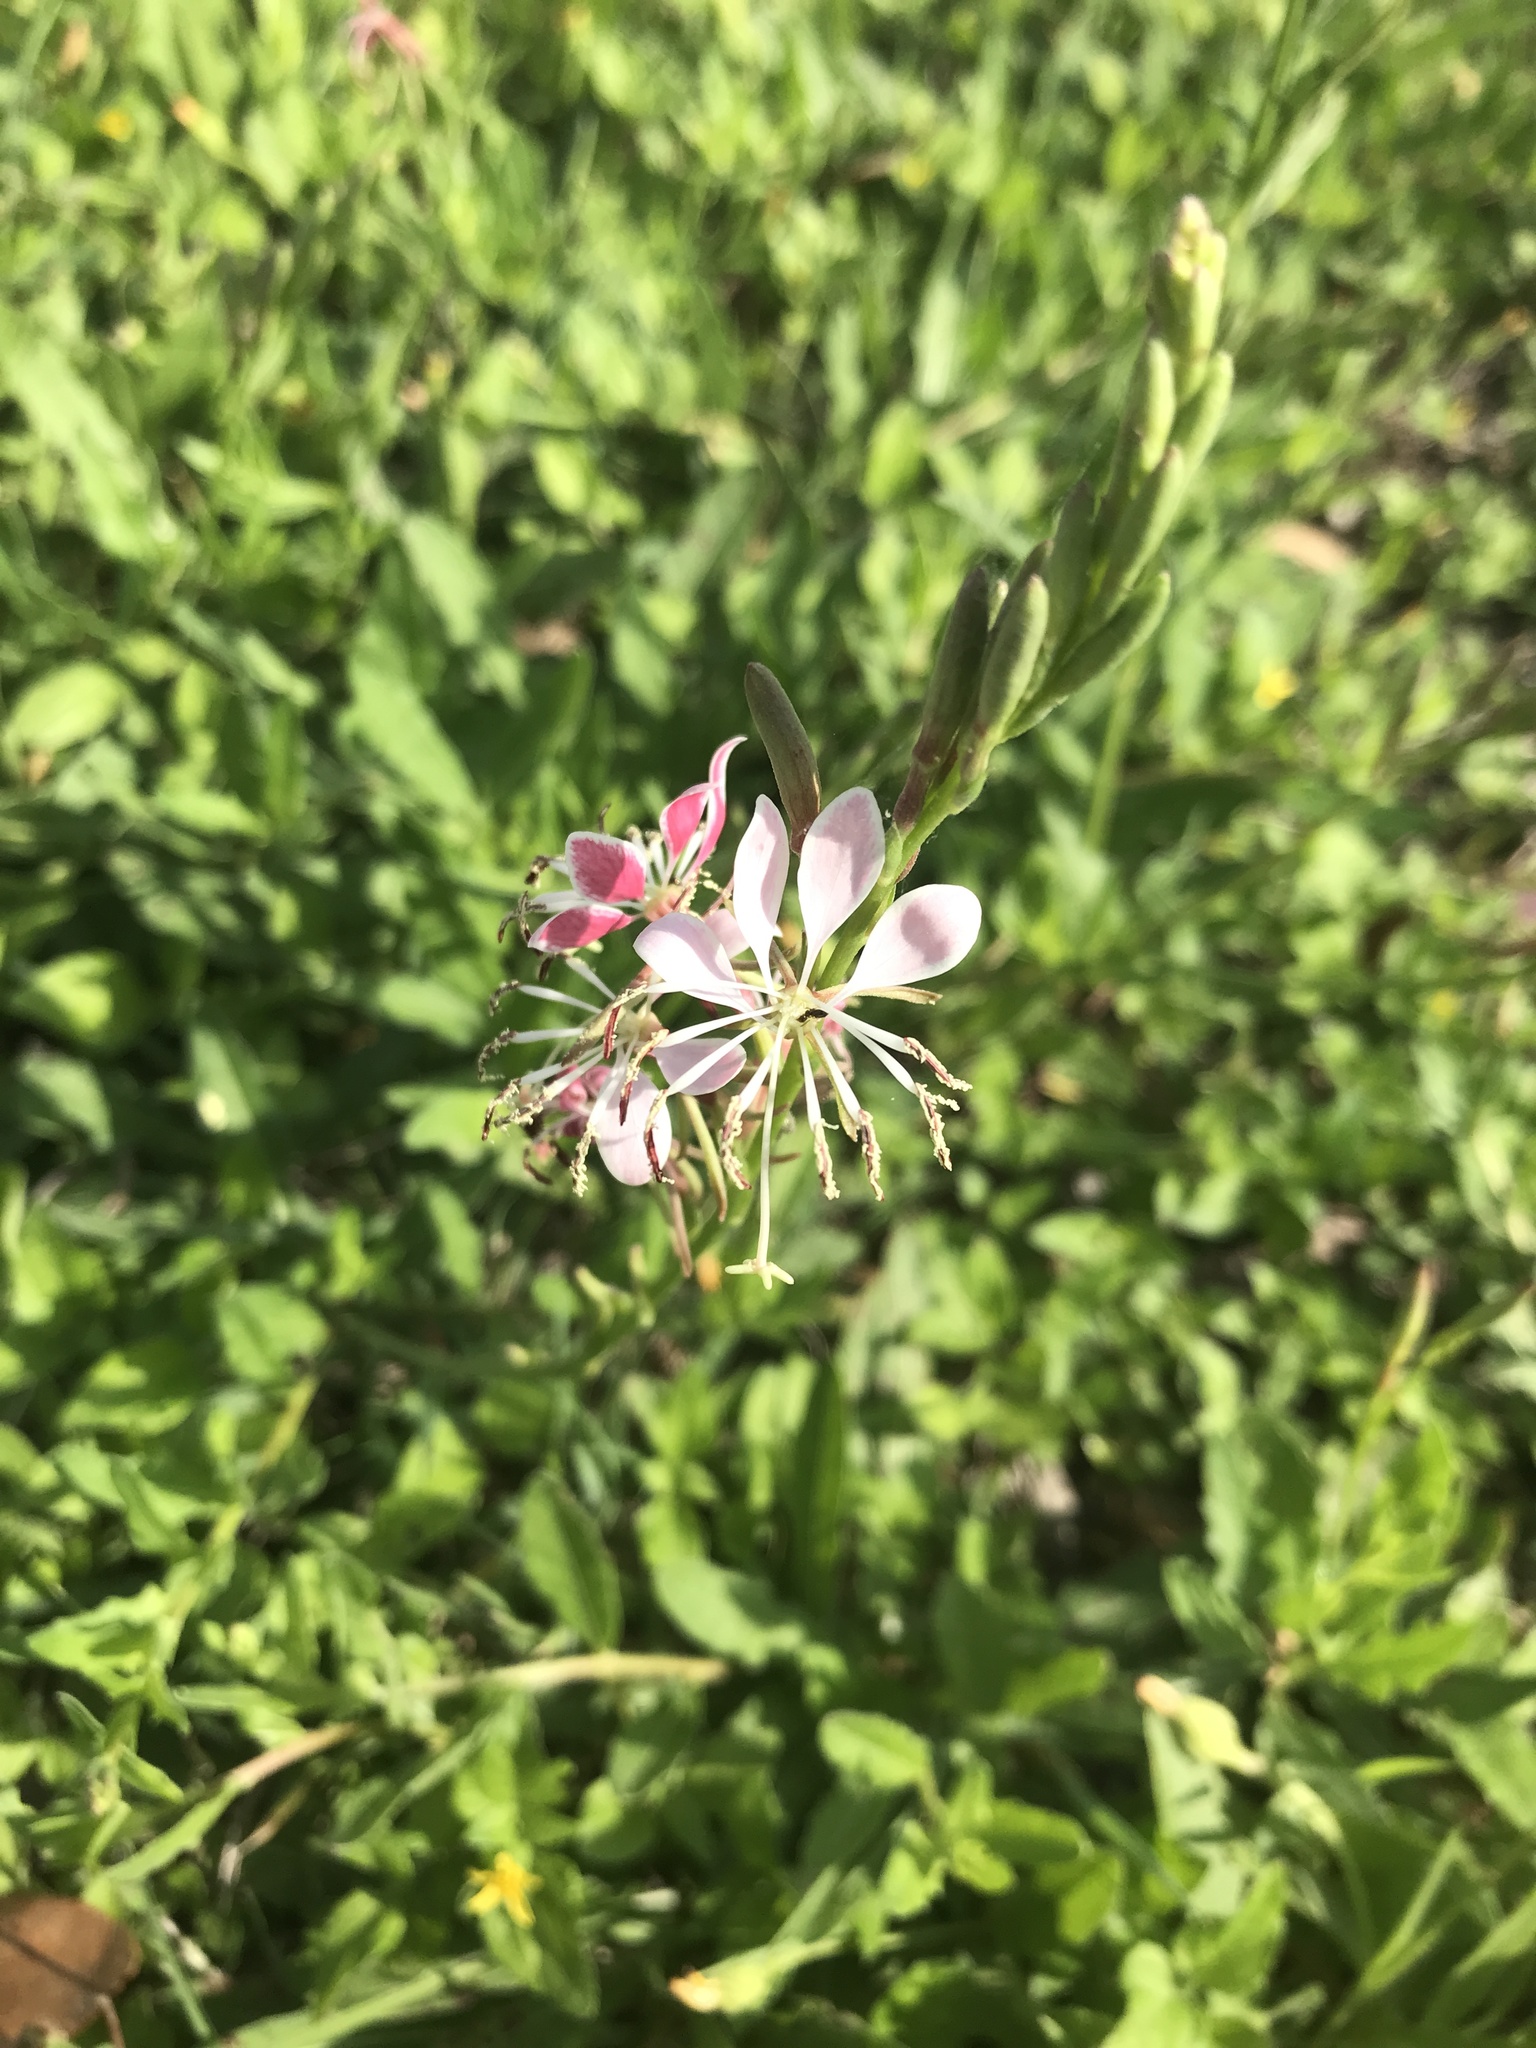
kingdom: Plantae
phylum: Tracheophyta
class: Magnoliopsida
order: Myrtales
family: Onagraceae
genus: Oenothera
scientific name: Oenothera suffulta
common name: Kisses
